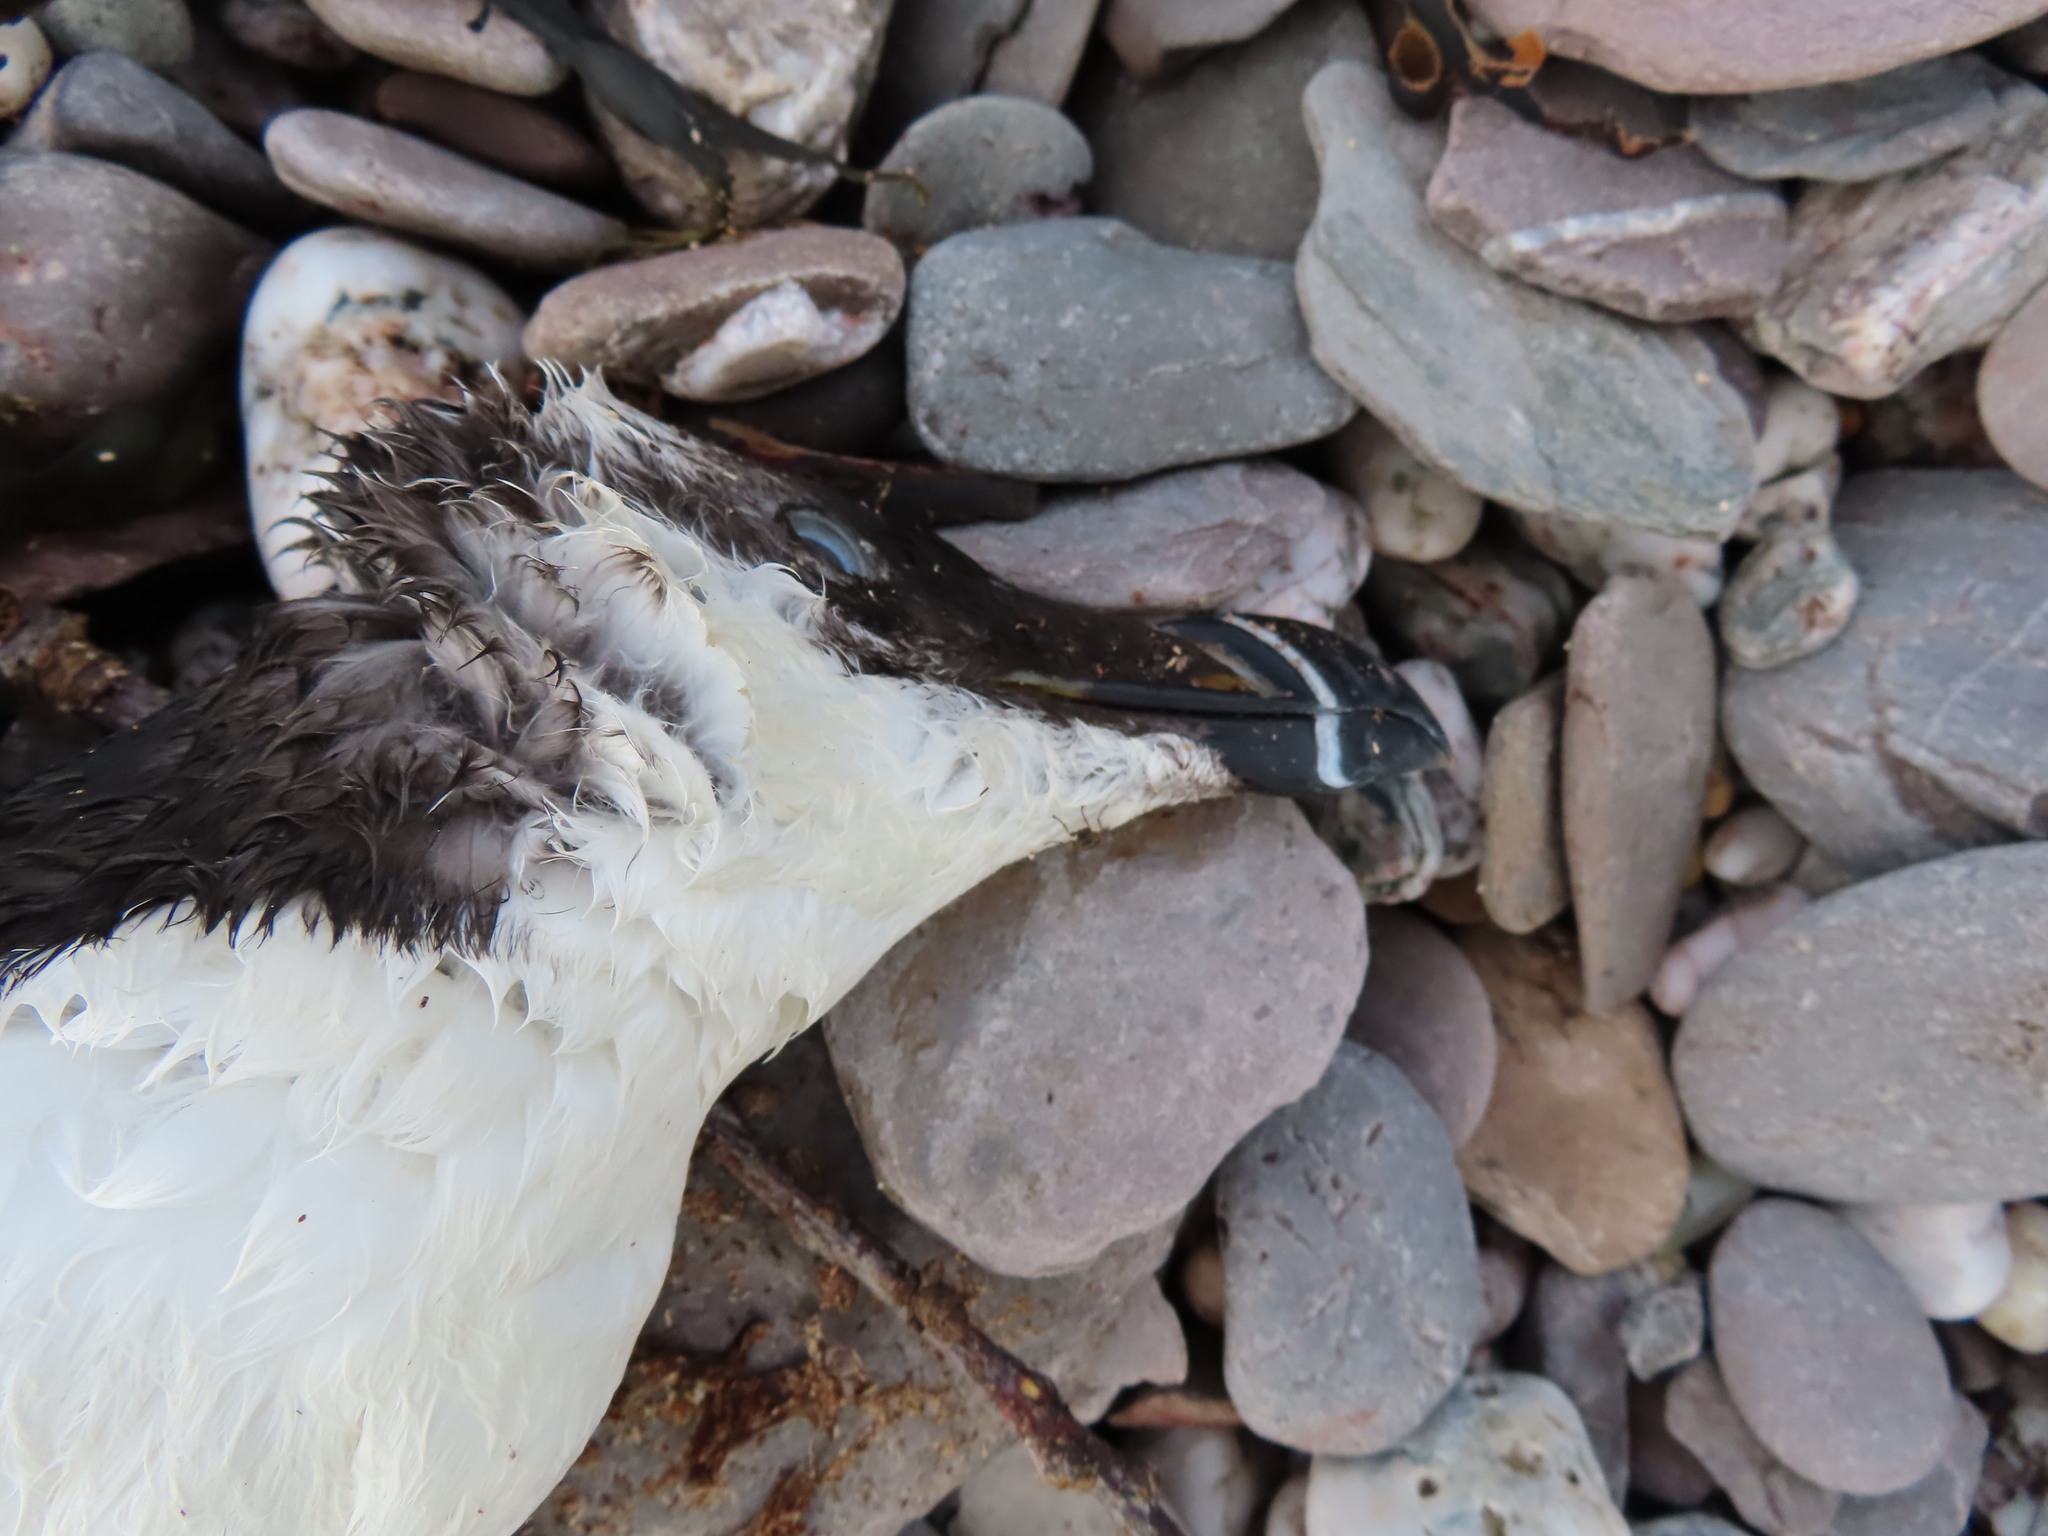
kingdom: Animalia
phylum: Chordata
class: Aves
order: Charadriiformes
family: Alcidae
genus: Alca
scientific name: Alca torda
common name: Razorbill
